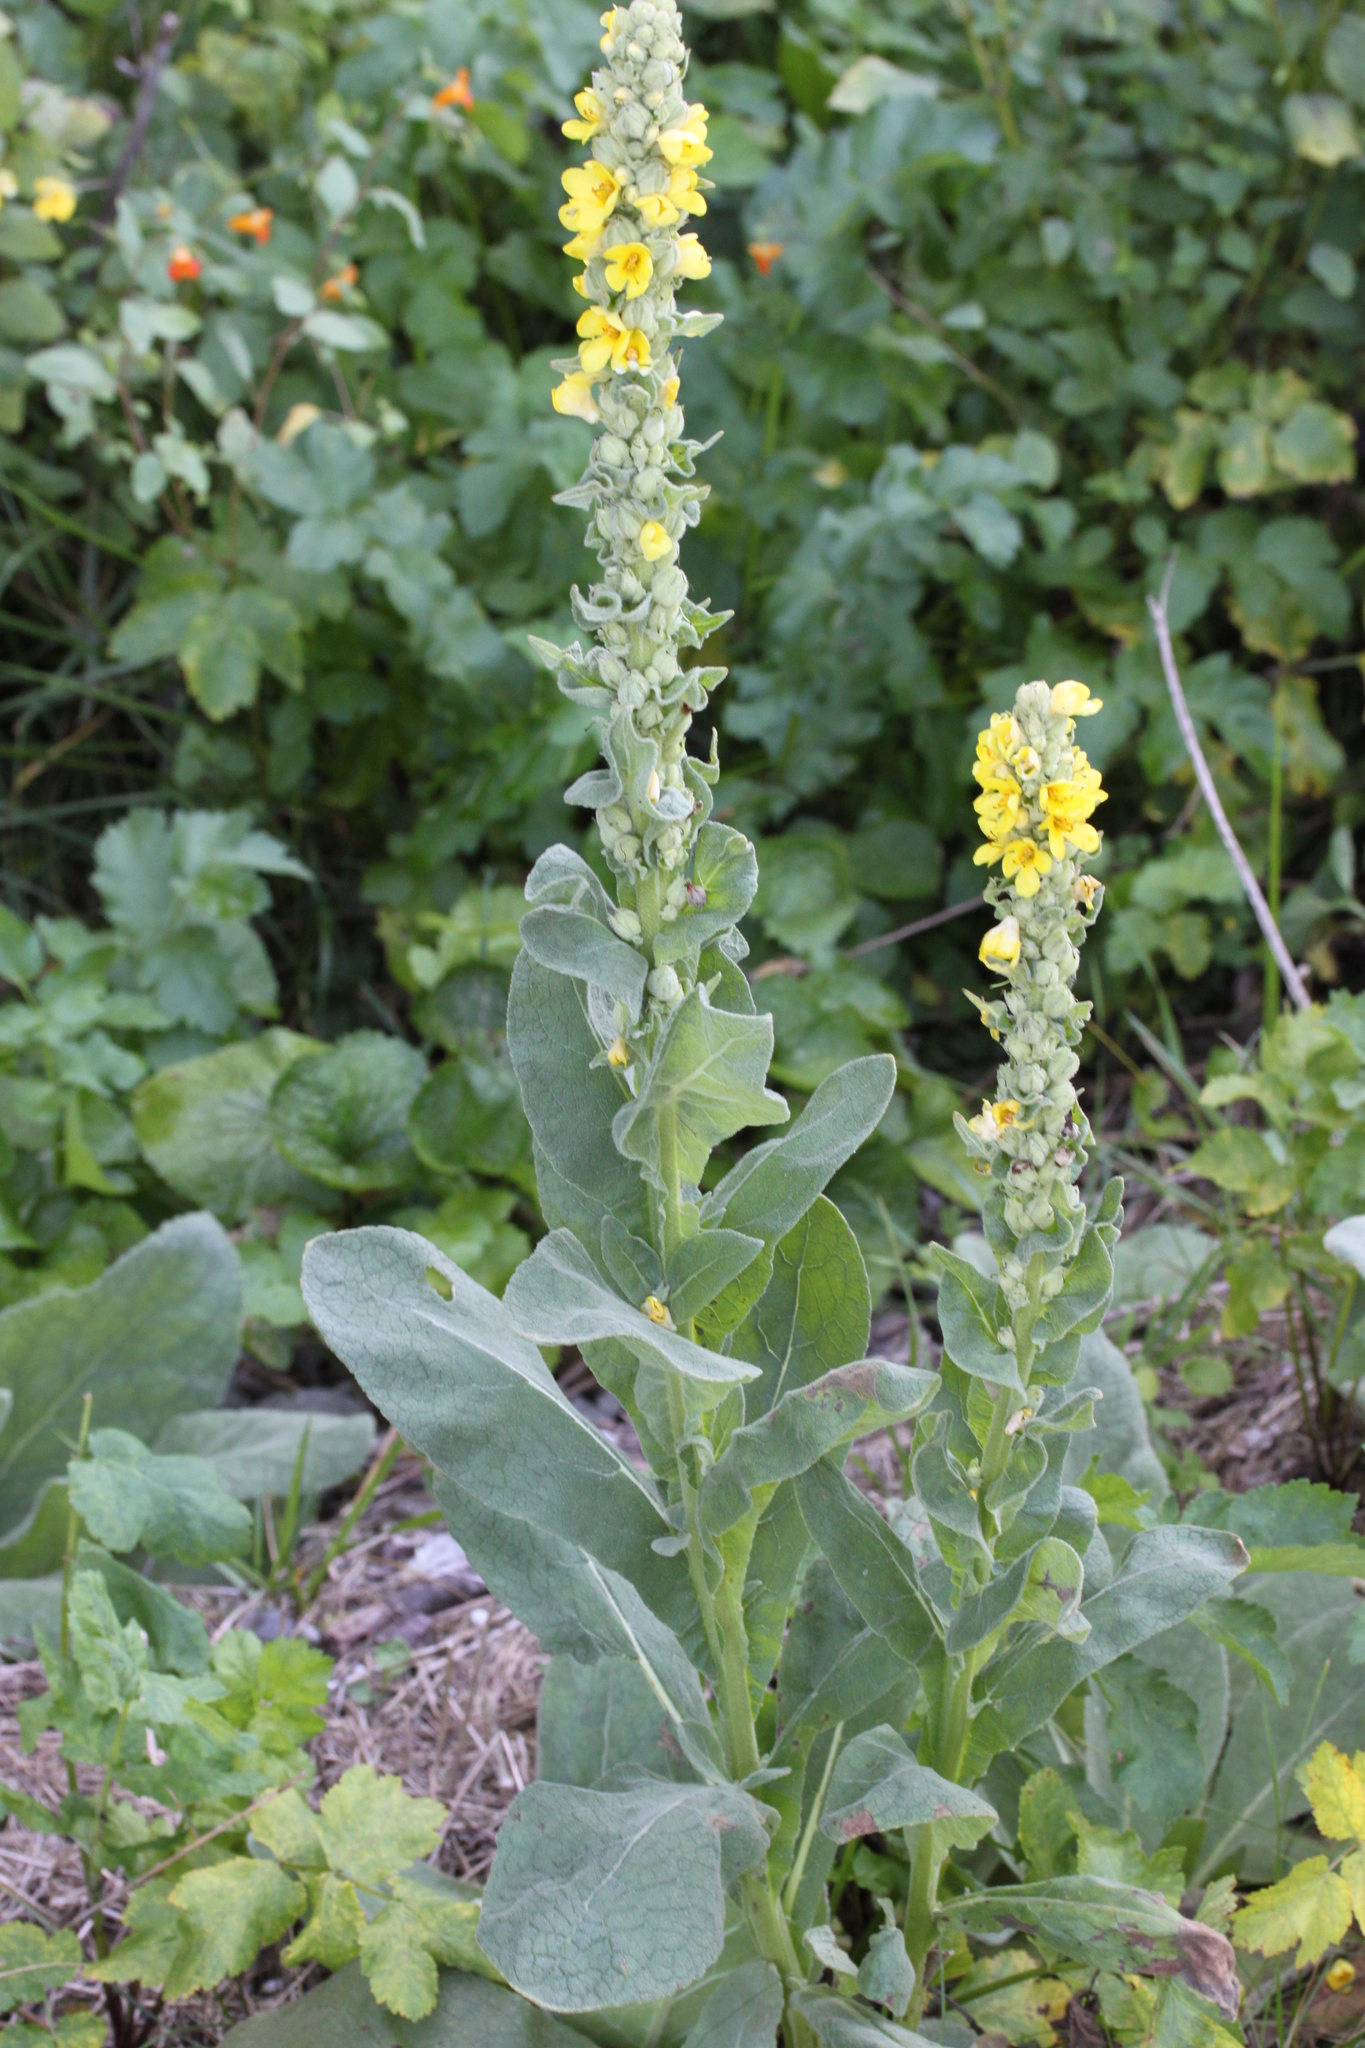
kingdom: Plantae
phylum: Tracheophyta
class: Magnoliopsida
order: Lamiales
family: Scrophulariaceae
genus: Verbascum
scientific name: Verbascum thapsus
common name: Common mullein
